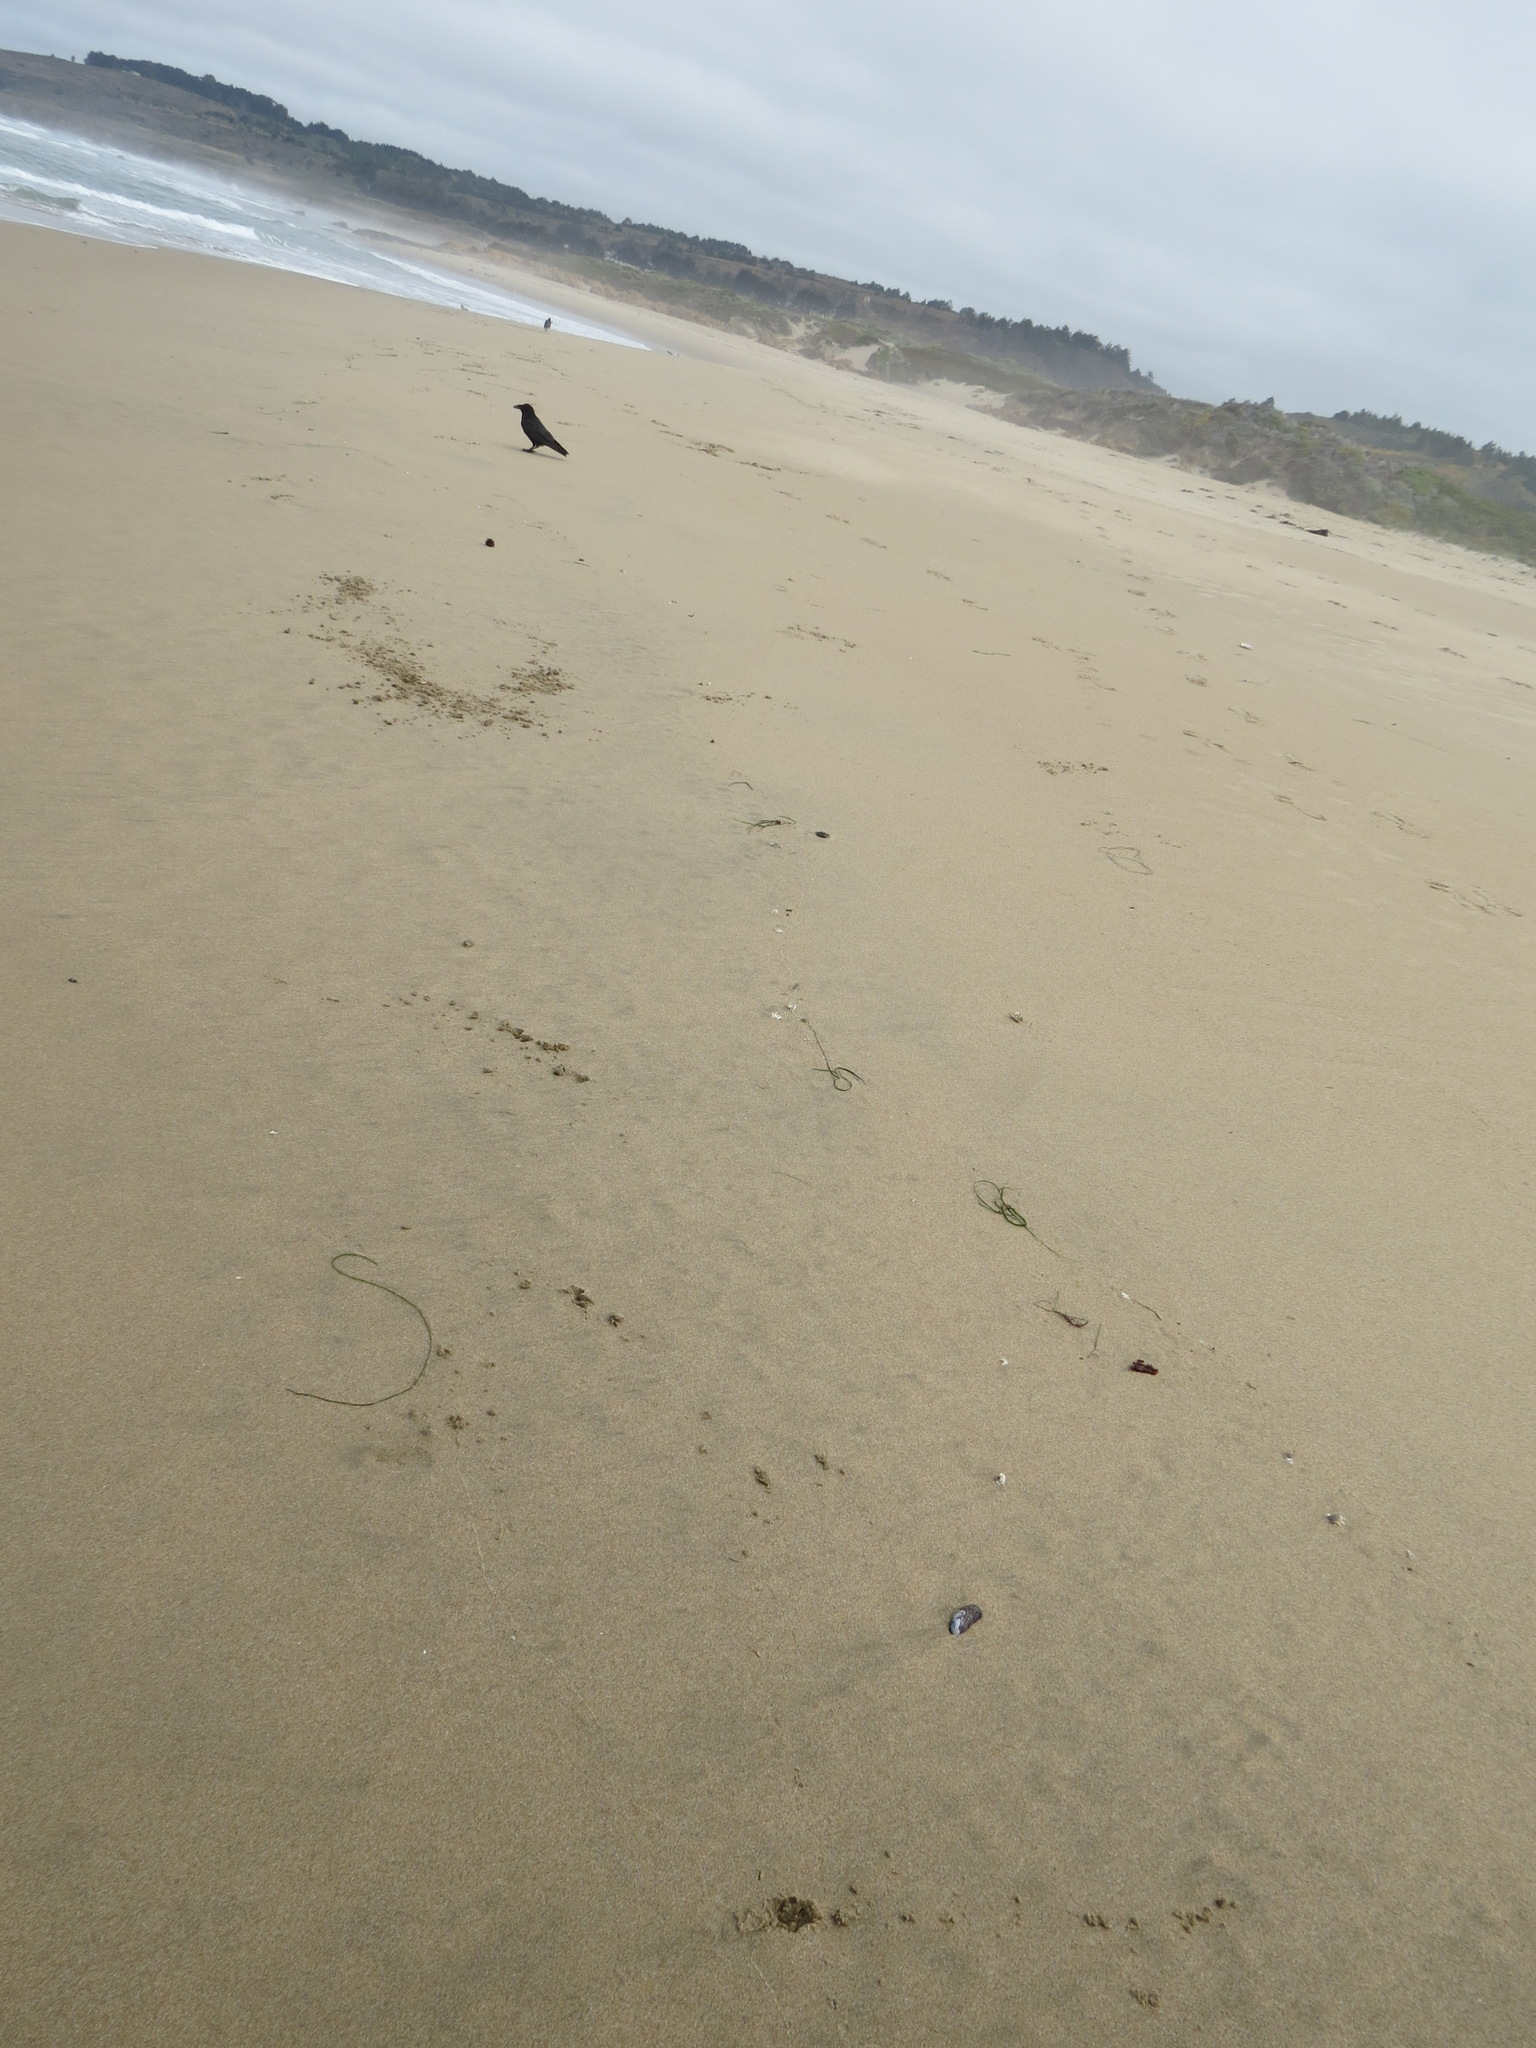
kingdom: Animalia
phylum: Chordata
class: Aves
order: Passeriformes
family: Corvidae
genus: Corvus
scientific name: Corvus corax
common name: Common raven
